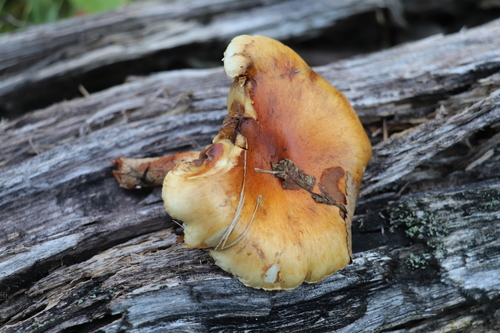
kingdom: Fungi
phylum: Basidiomycota
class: Agaricomycetes
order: Agaricales
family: Strophariaceae
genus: Pholiota
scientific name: Pholiota lubrica
